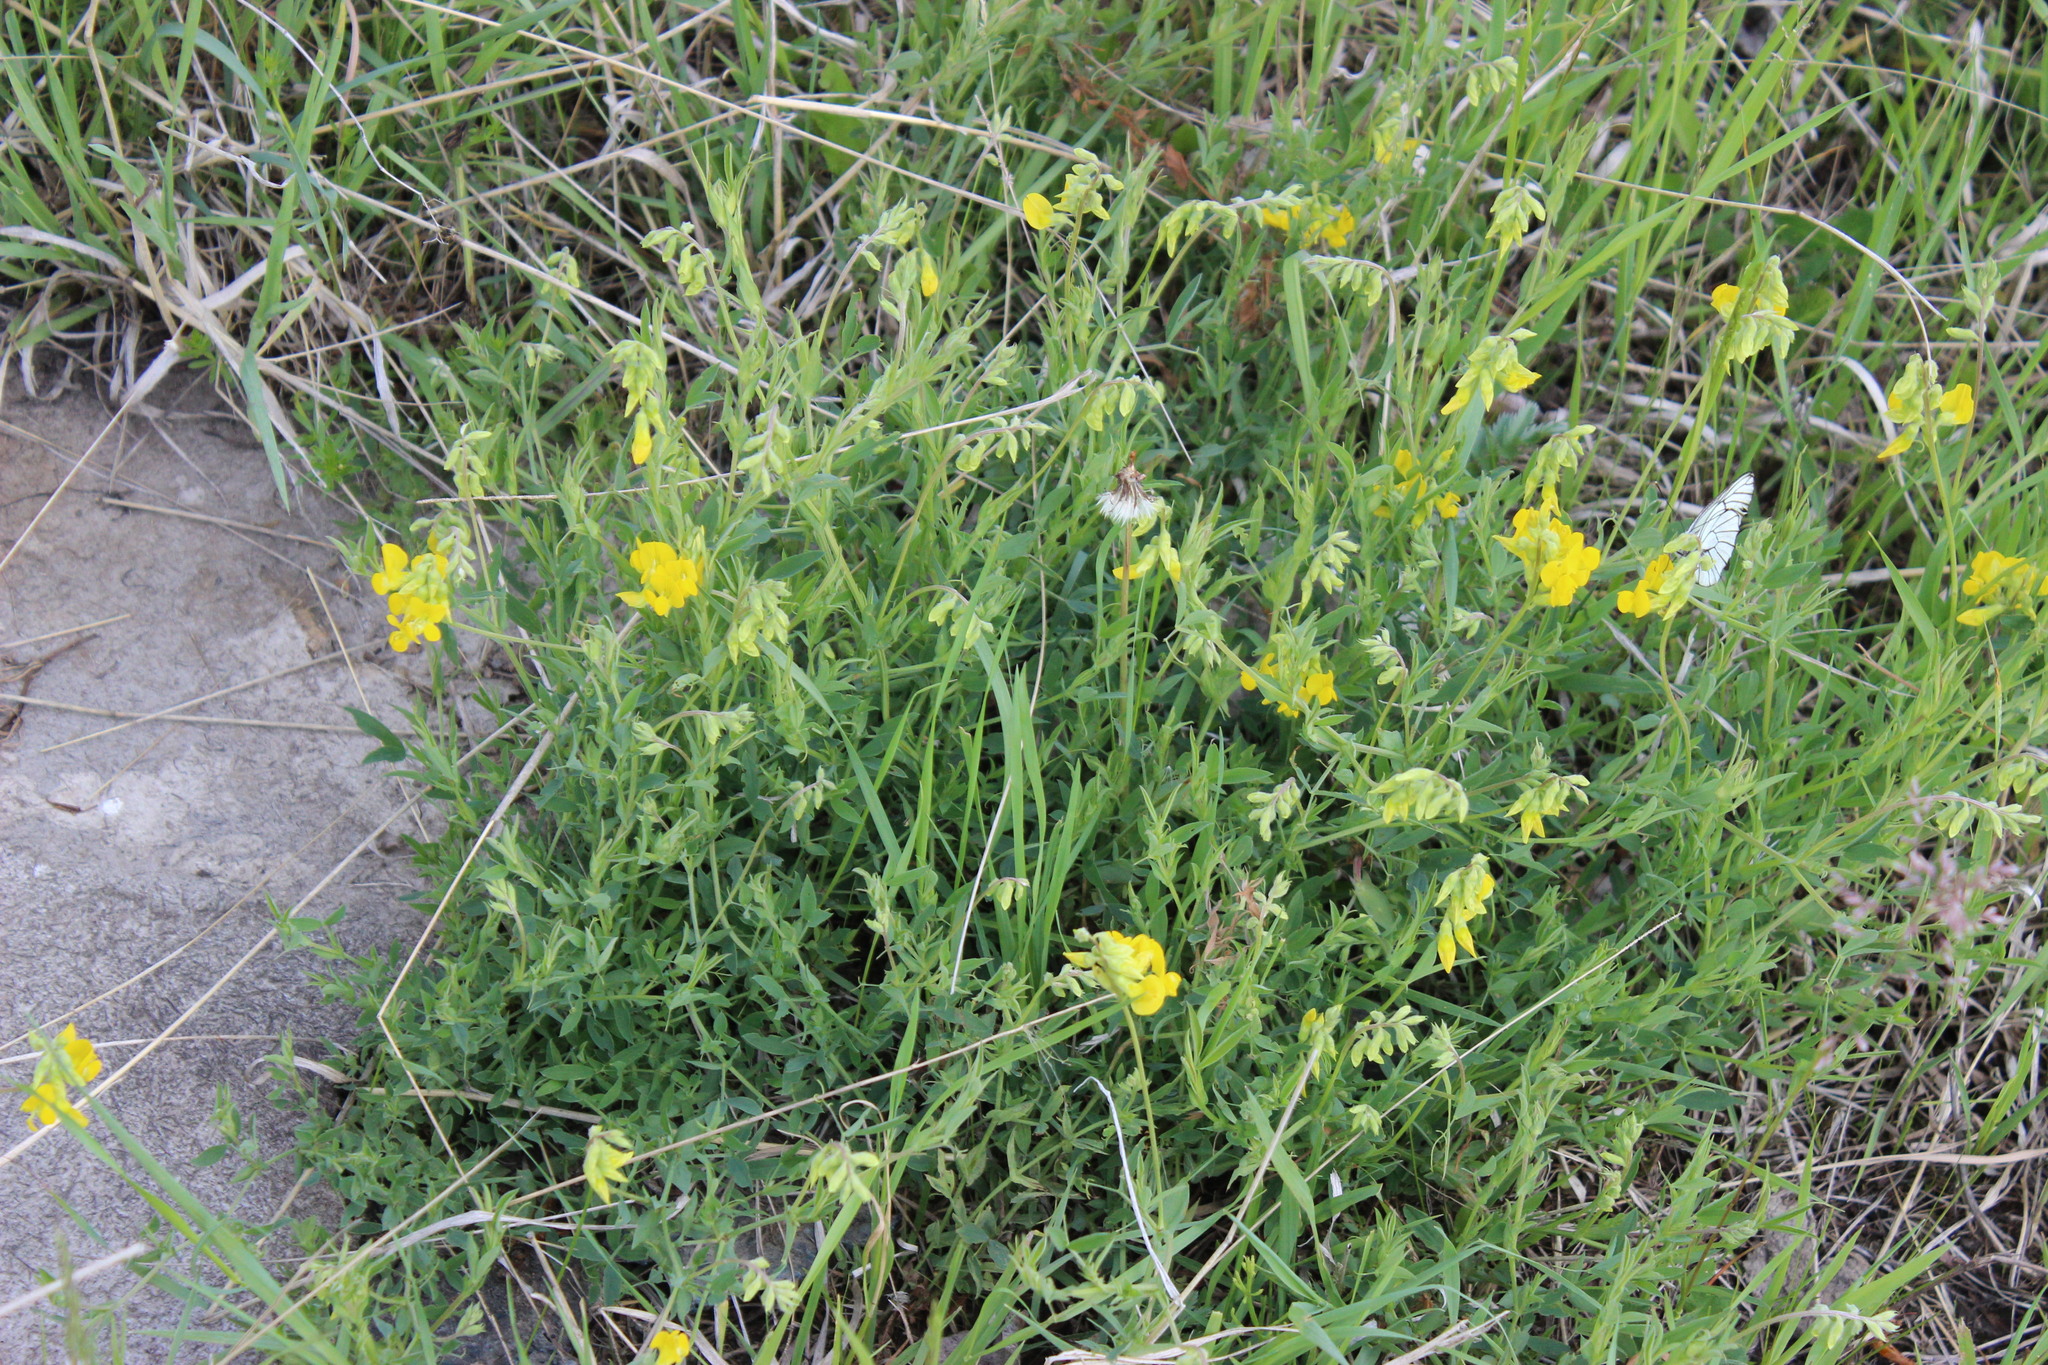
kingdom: Plantae
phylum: Tracheophyta
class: Magnoliopsida
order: Fabales
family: Fabaceae
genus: Lathyrus
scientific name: Lathyrus pratensis
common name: Meadow vetchling
